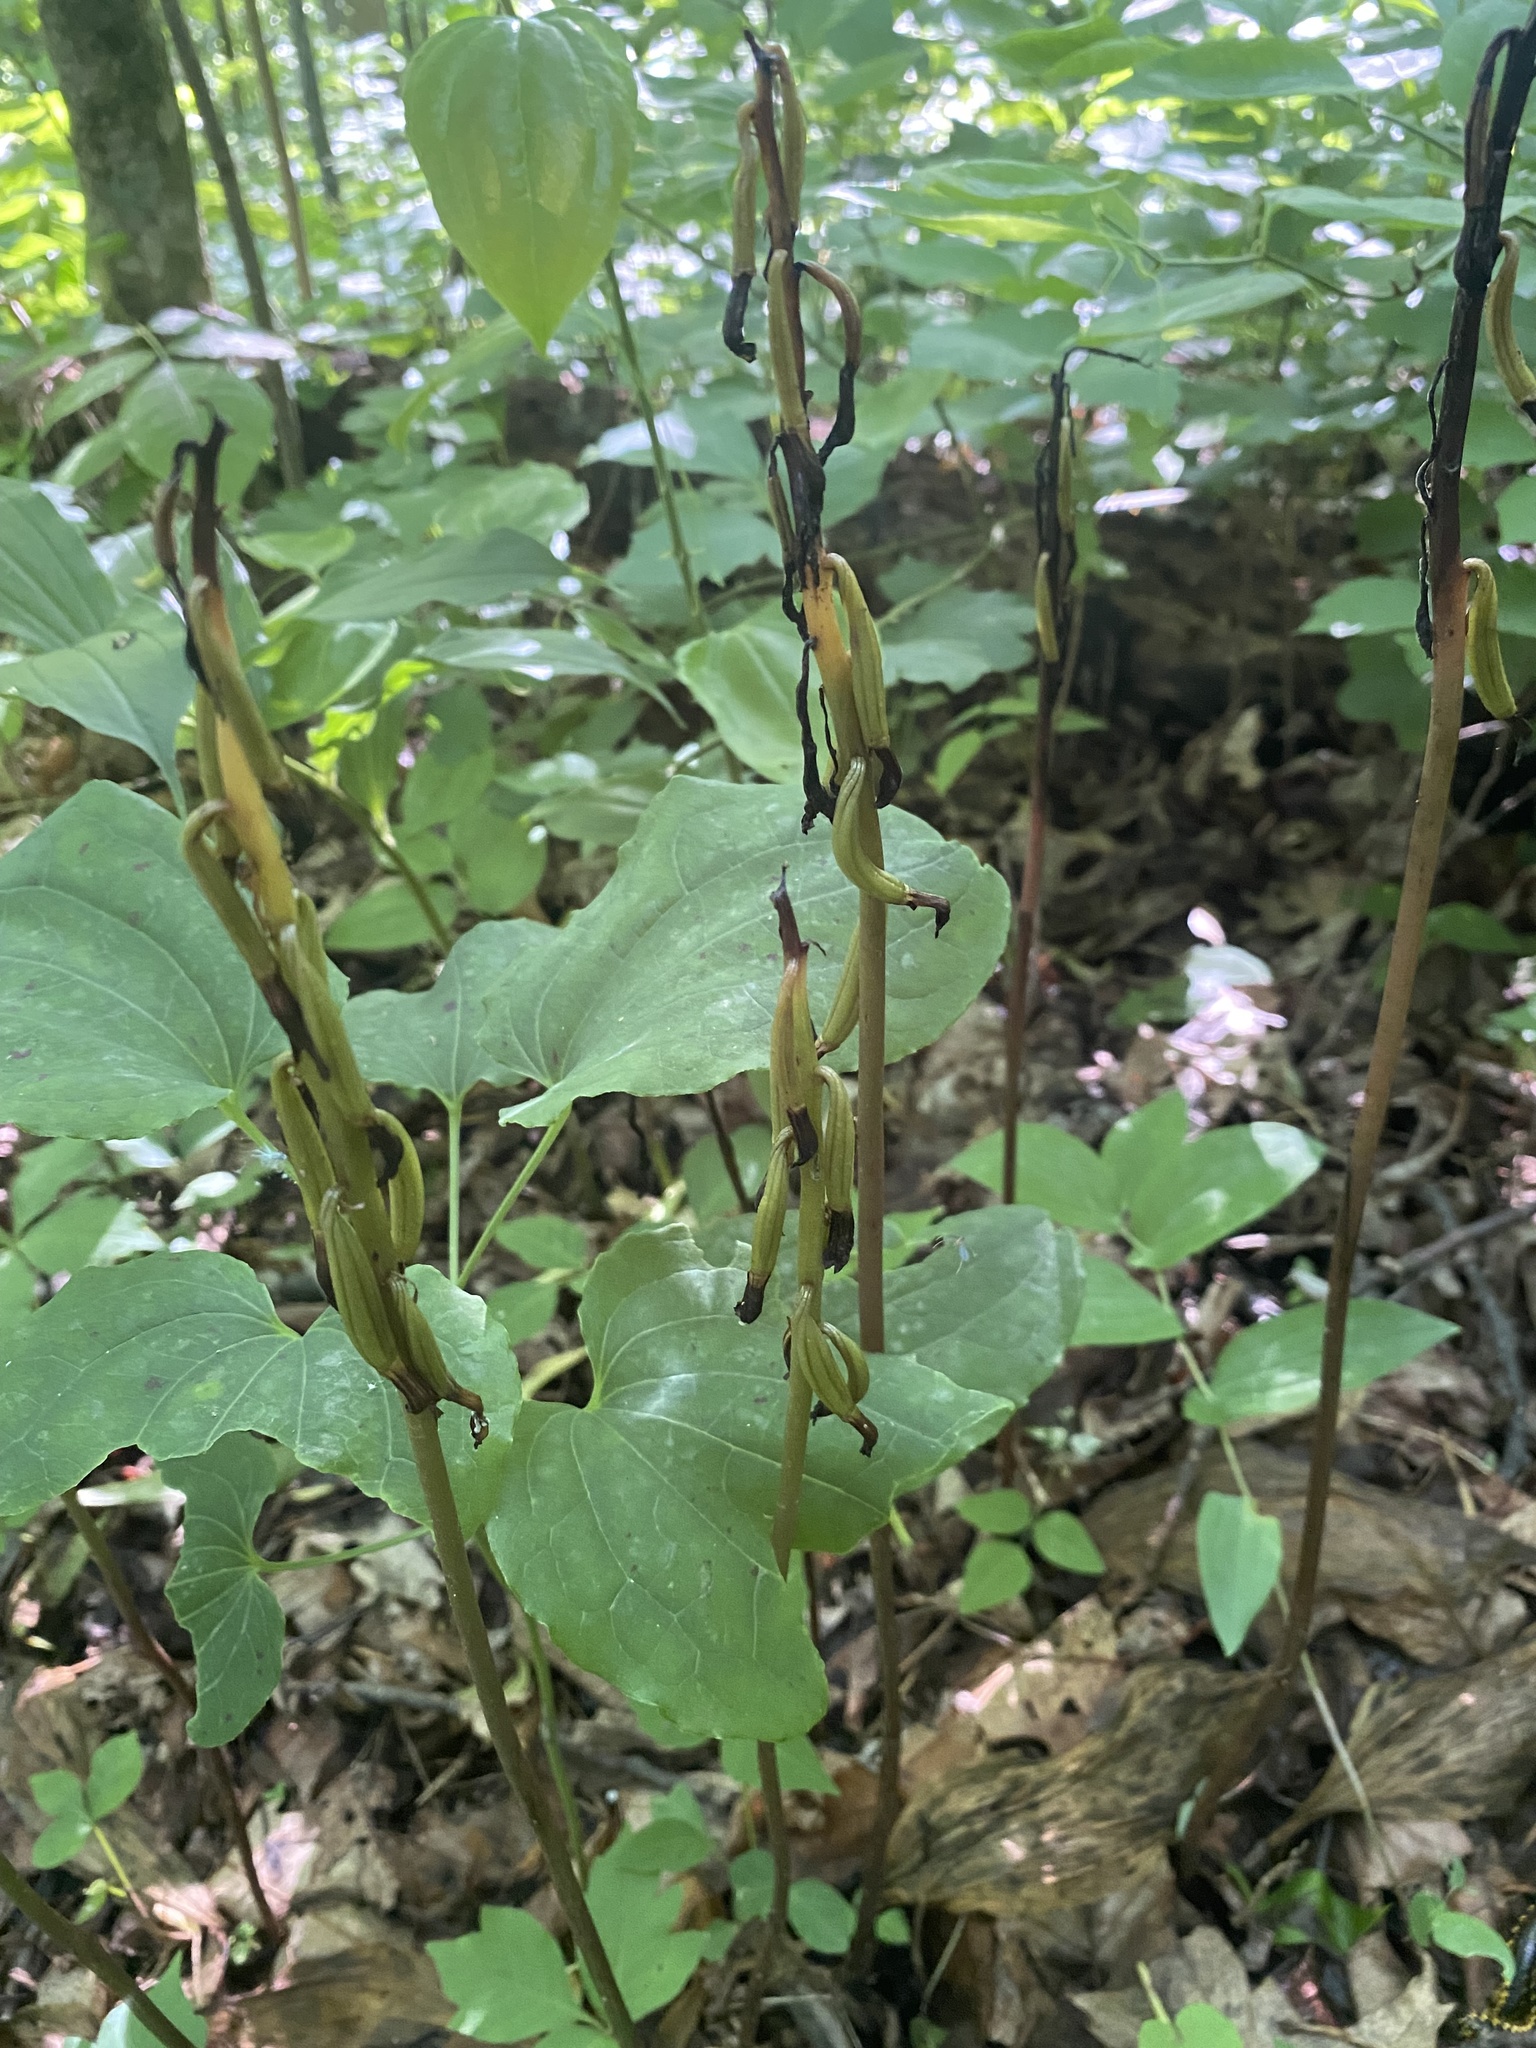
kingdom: Plantae
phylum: Tracheophyta
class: Liliopsida
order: Asparagales
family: Orchidaceae
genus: Aplectrum
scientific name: Aplectrum hyemale
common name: Adam-and-eve
